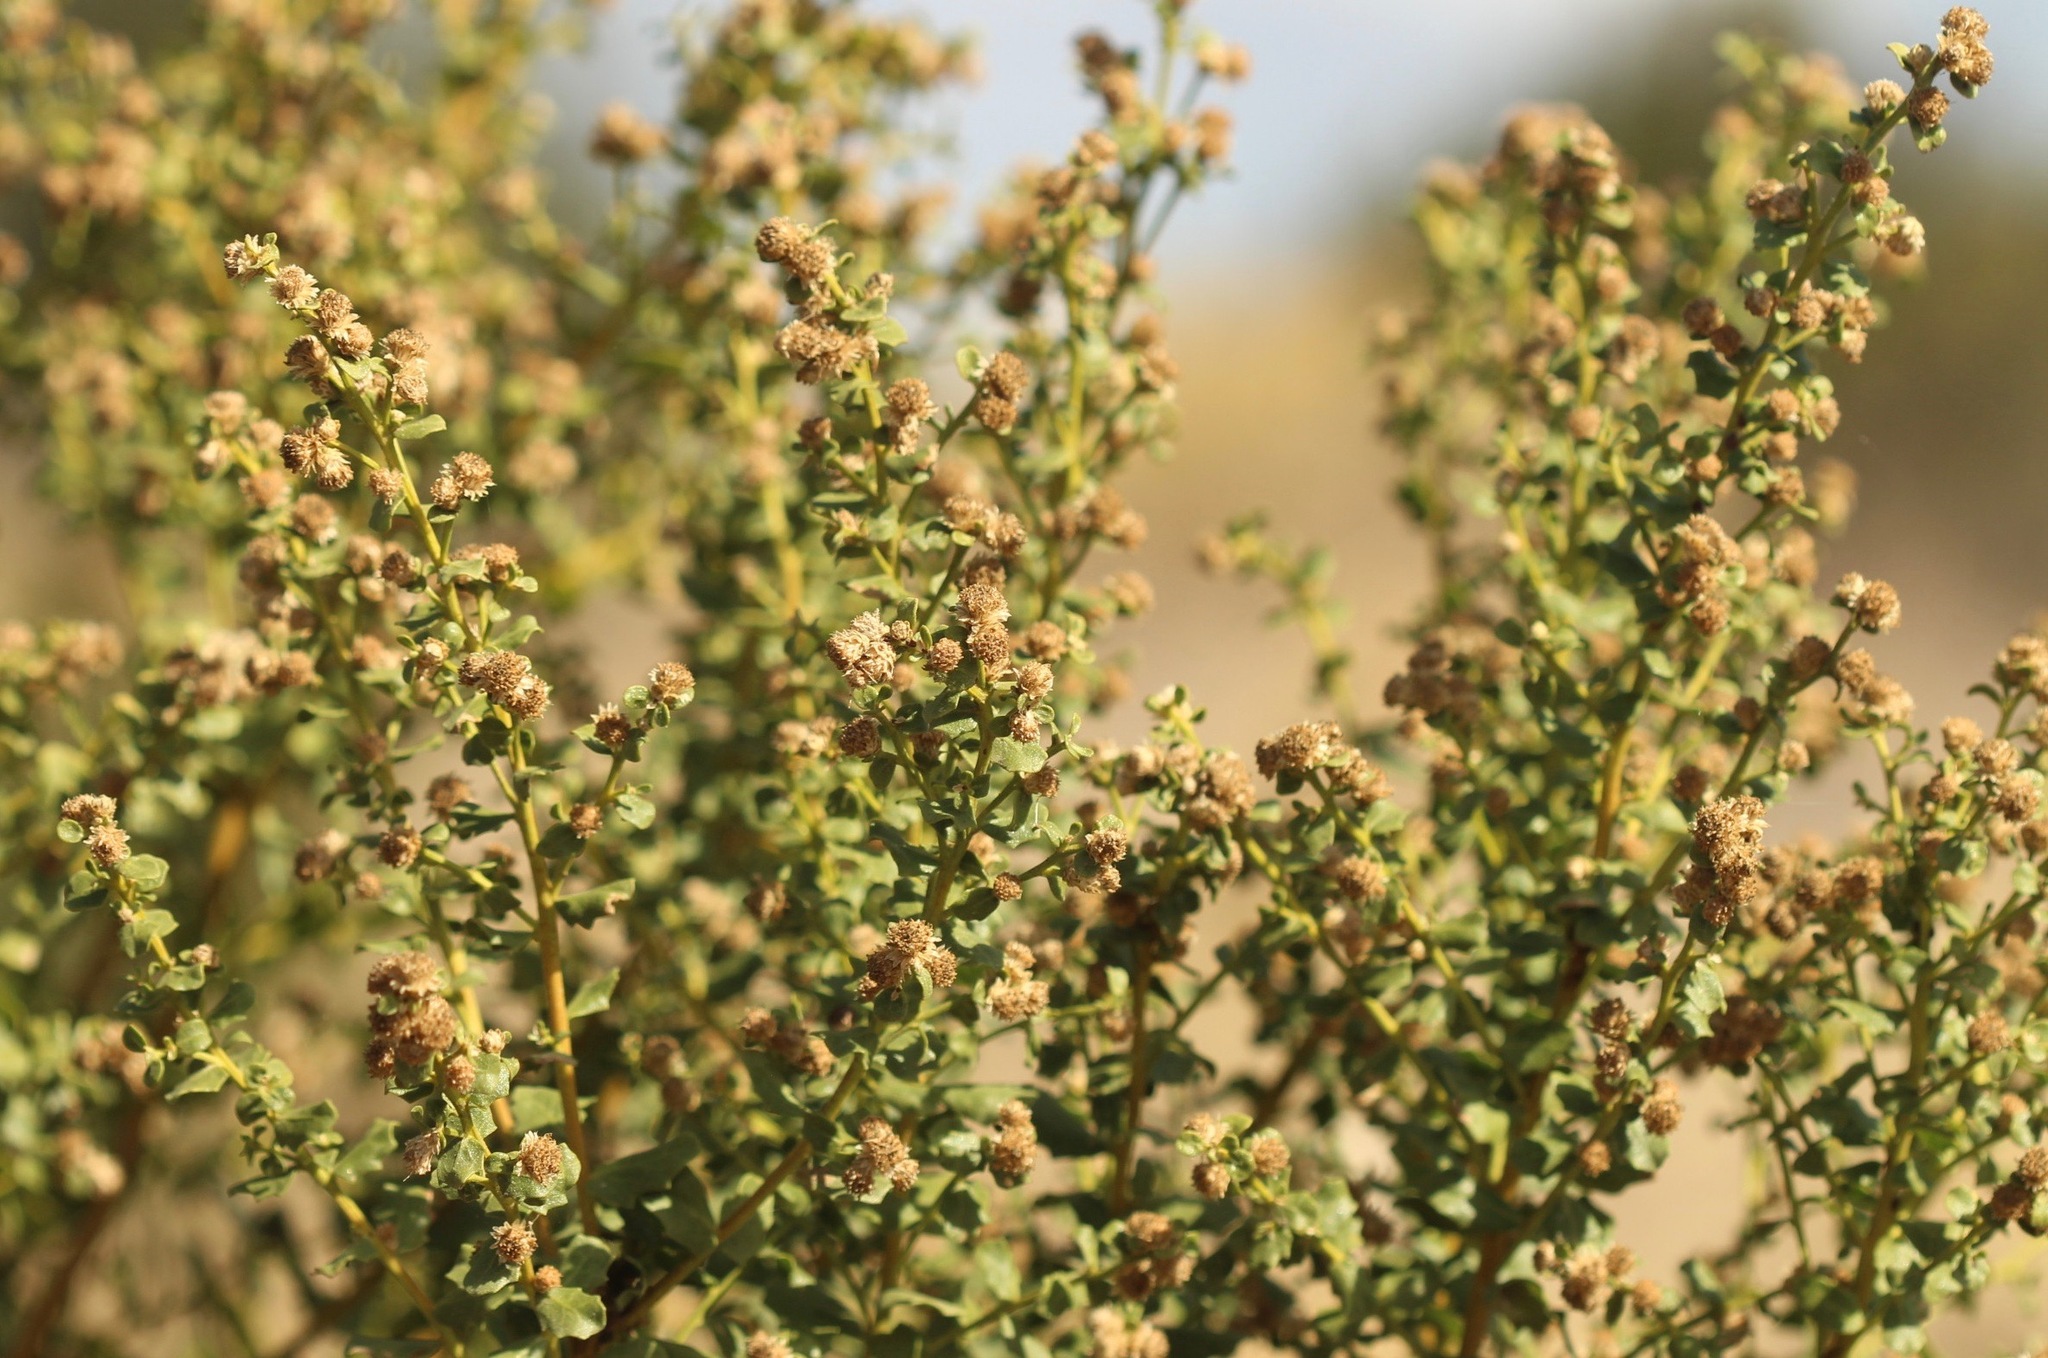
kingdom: Plantae
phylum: Tracheophyta
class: Magnoliopsida
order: Asterales
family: Asteraceae
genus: Baccharis
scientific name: Baccharis pilularis
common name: Coyotebrush
